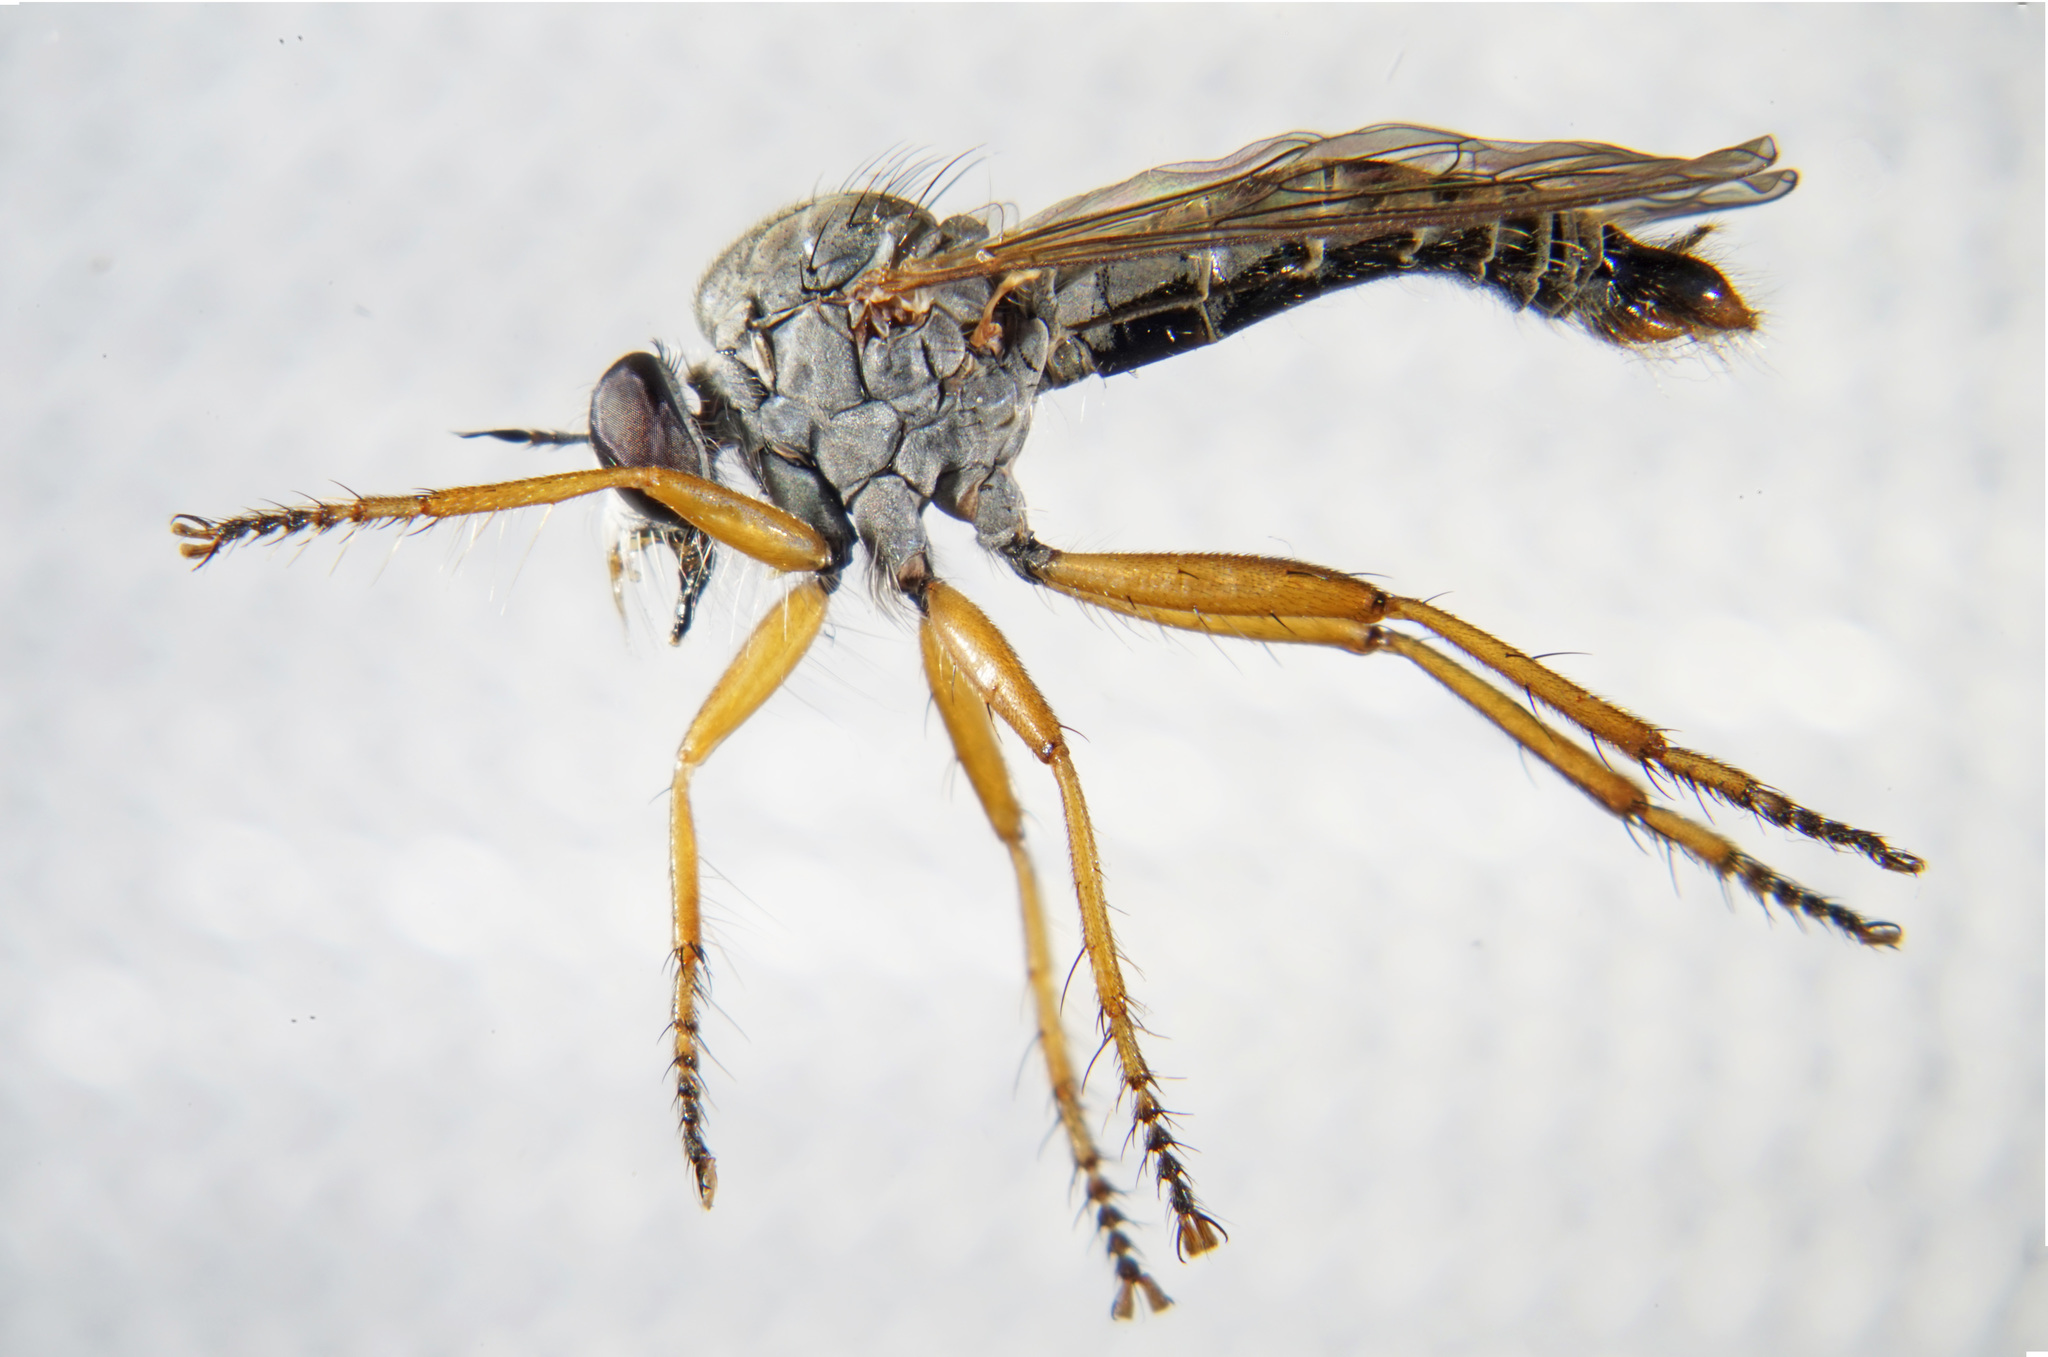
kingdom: Animalia
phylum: Arthropoda
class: Insecta
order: Diptera
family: Asilidae
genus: Neomochtherus
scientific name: Neomochtherus schineri
